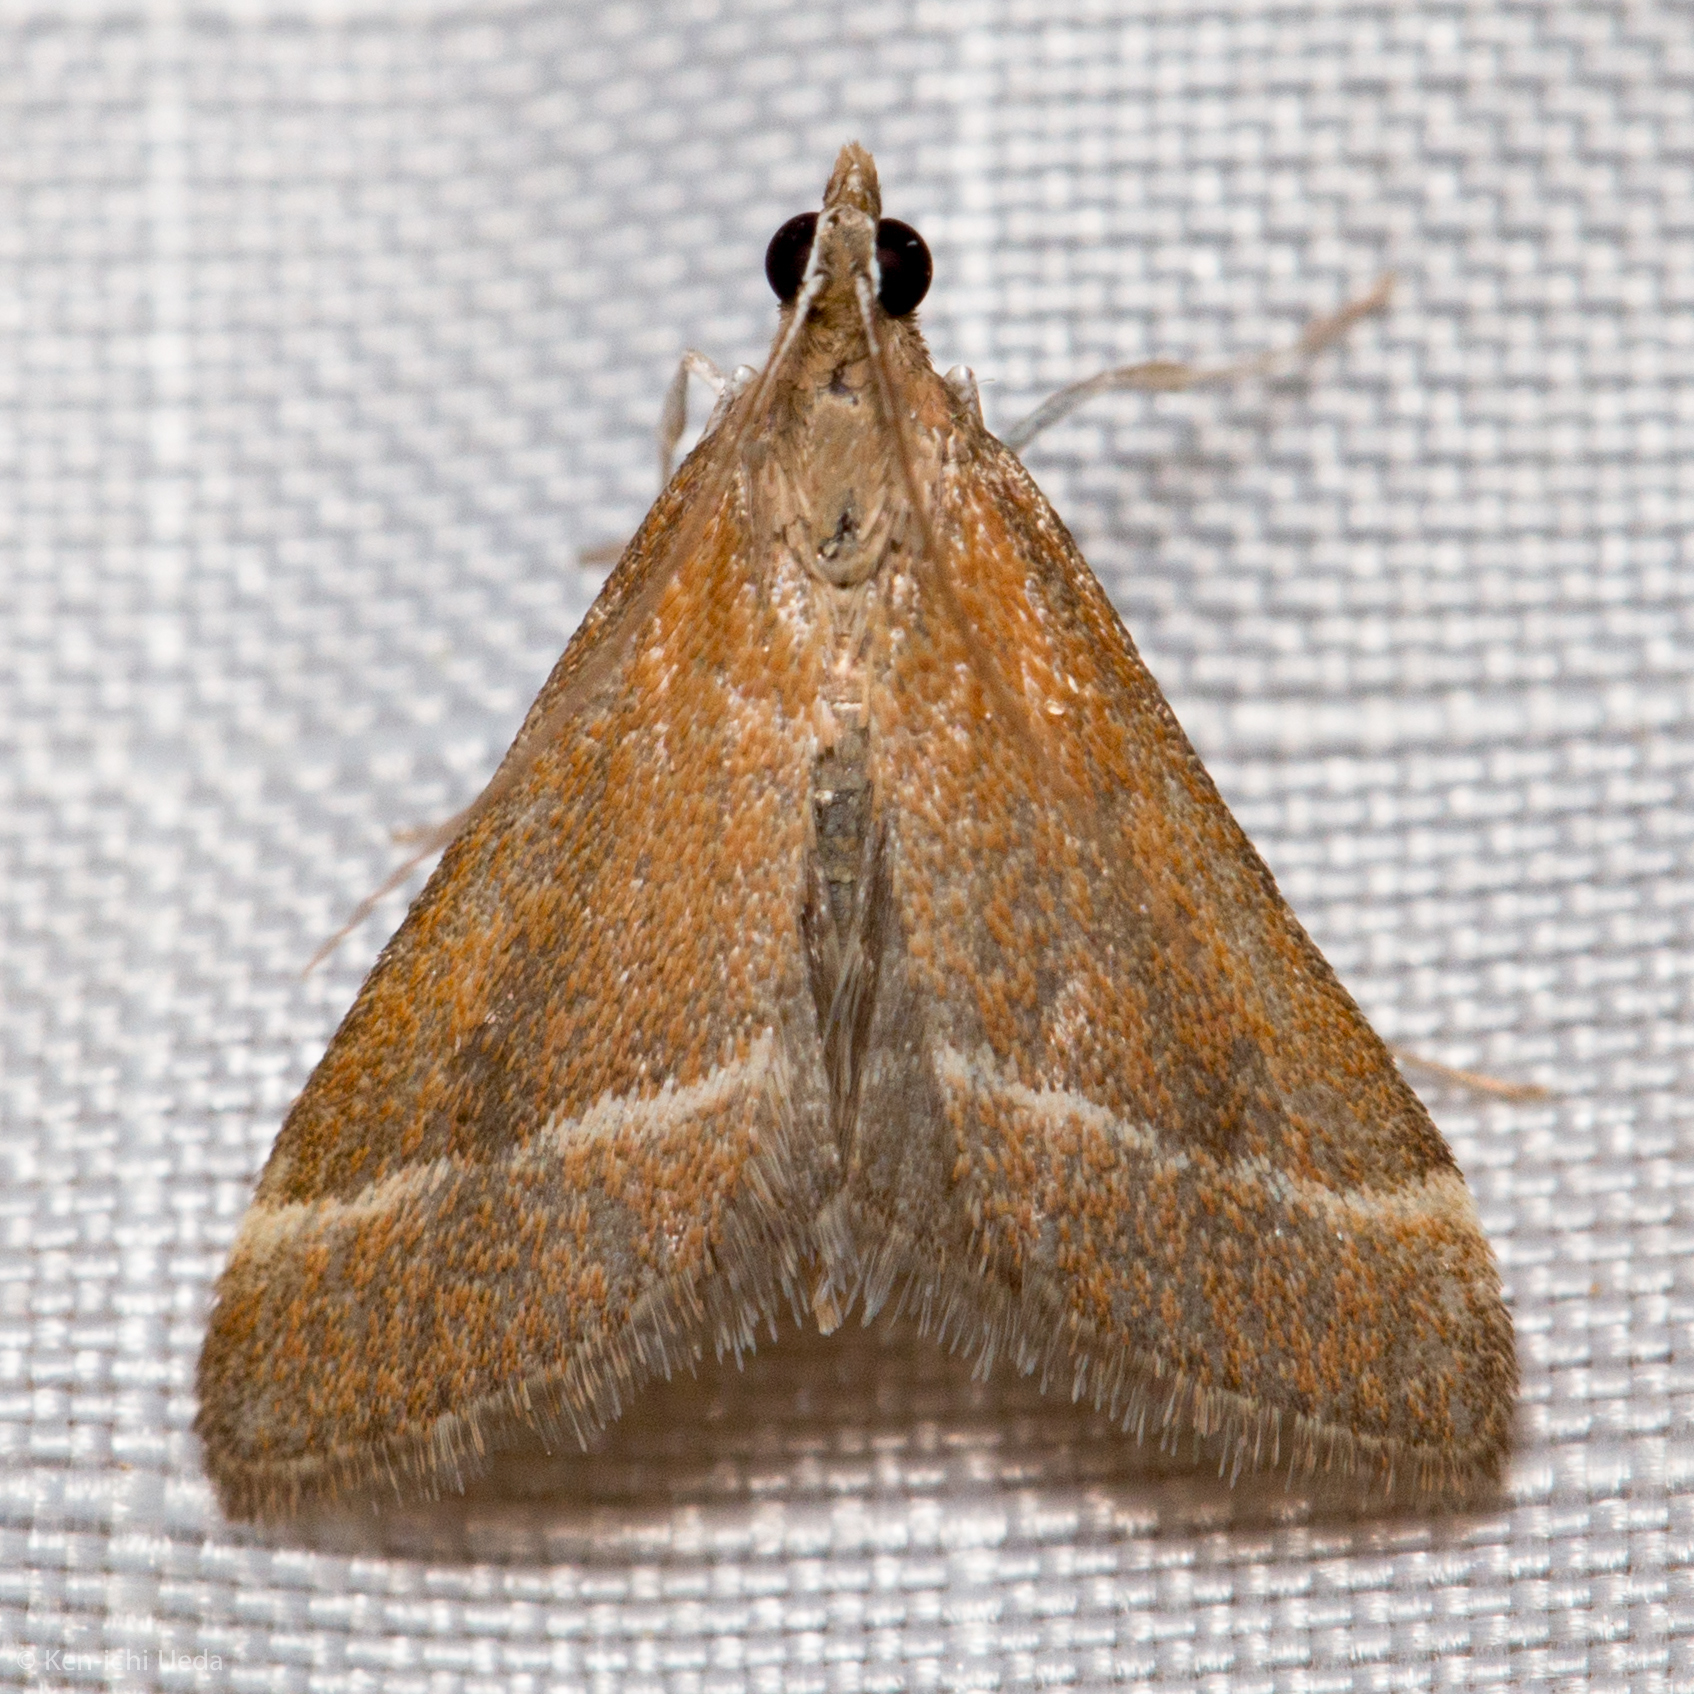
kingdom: Animalia
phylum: Arthropoda
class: Insecta
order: Lepidoptera
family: Crambidae
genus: Pyrausta
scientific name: Pyrausta lethalis
